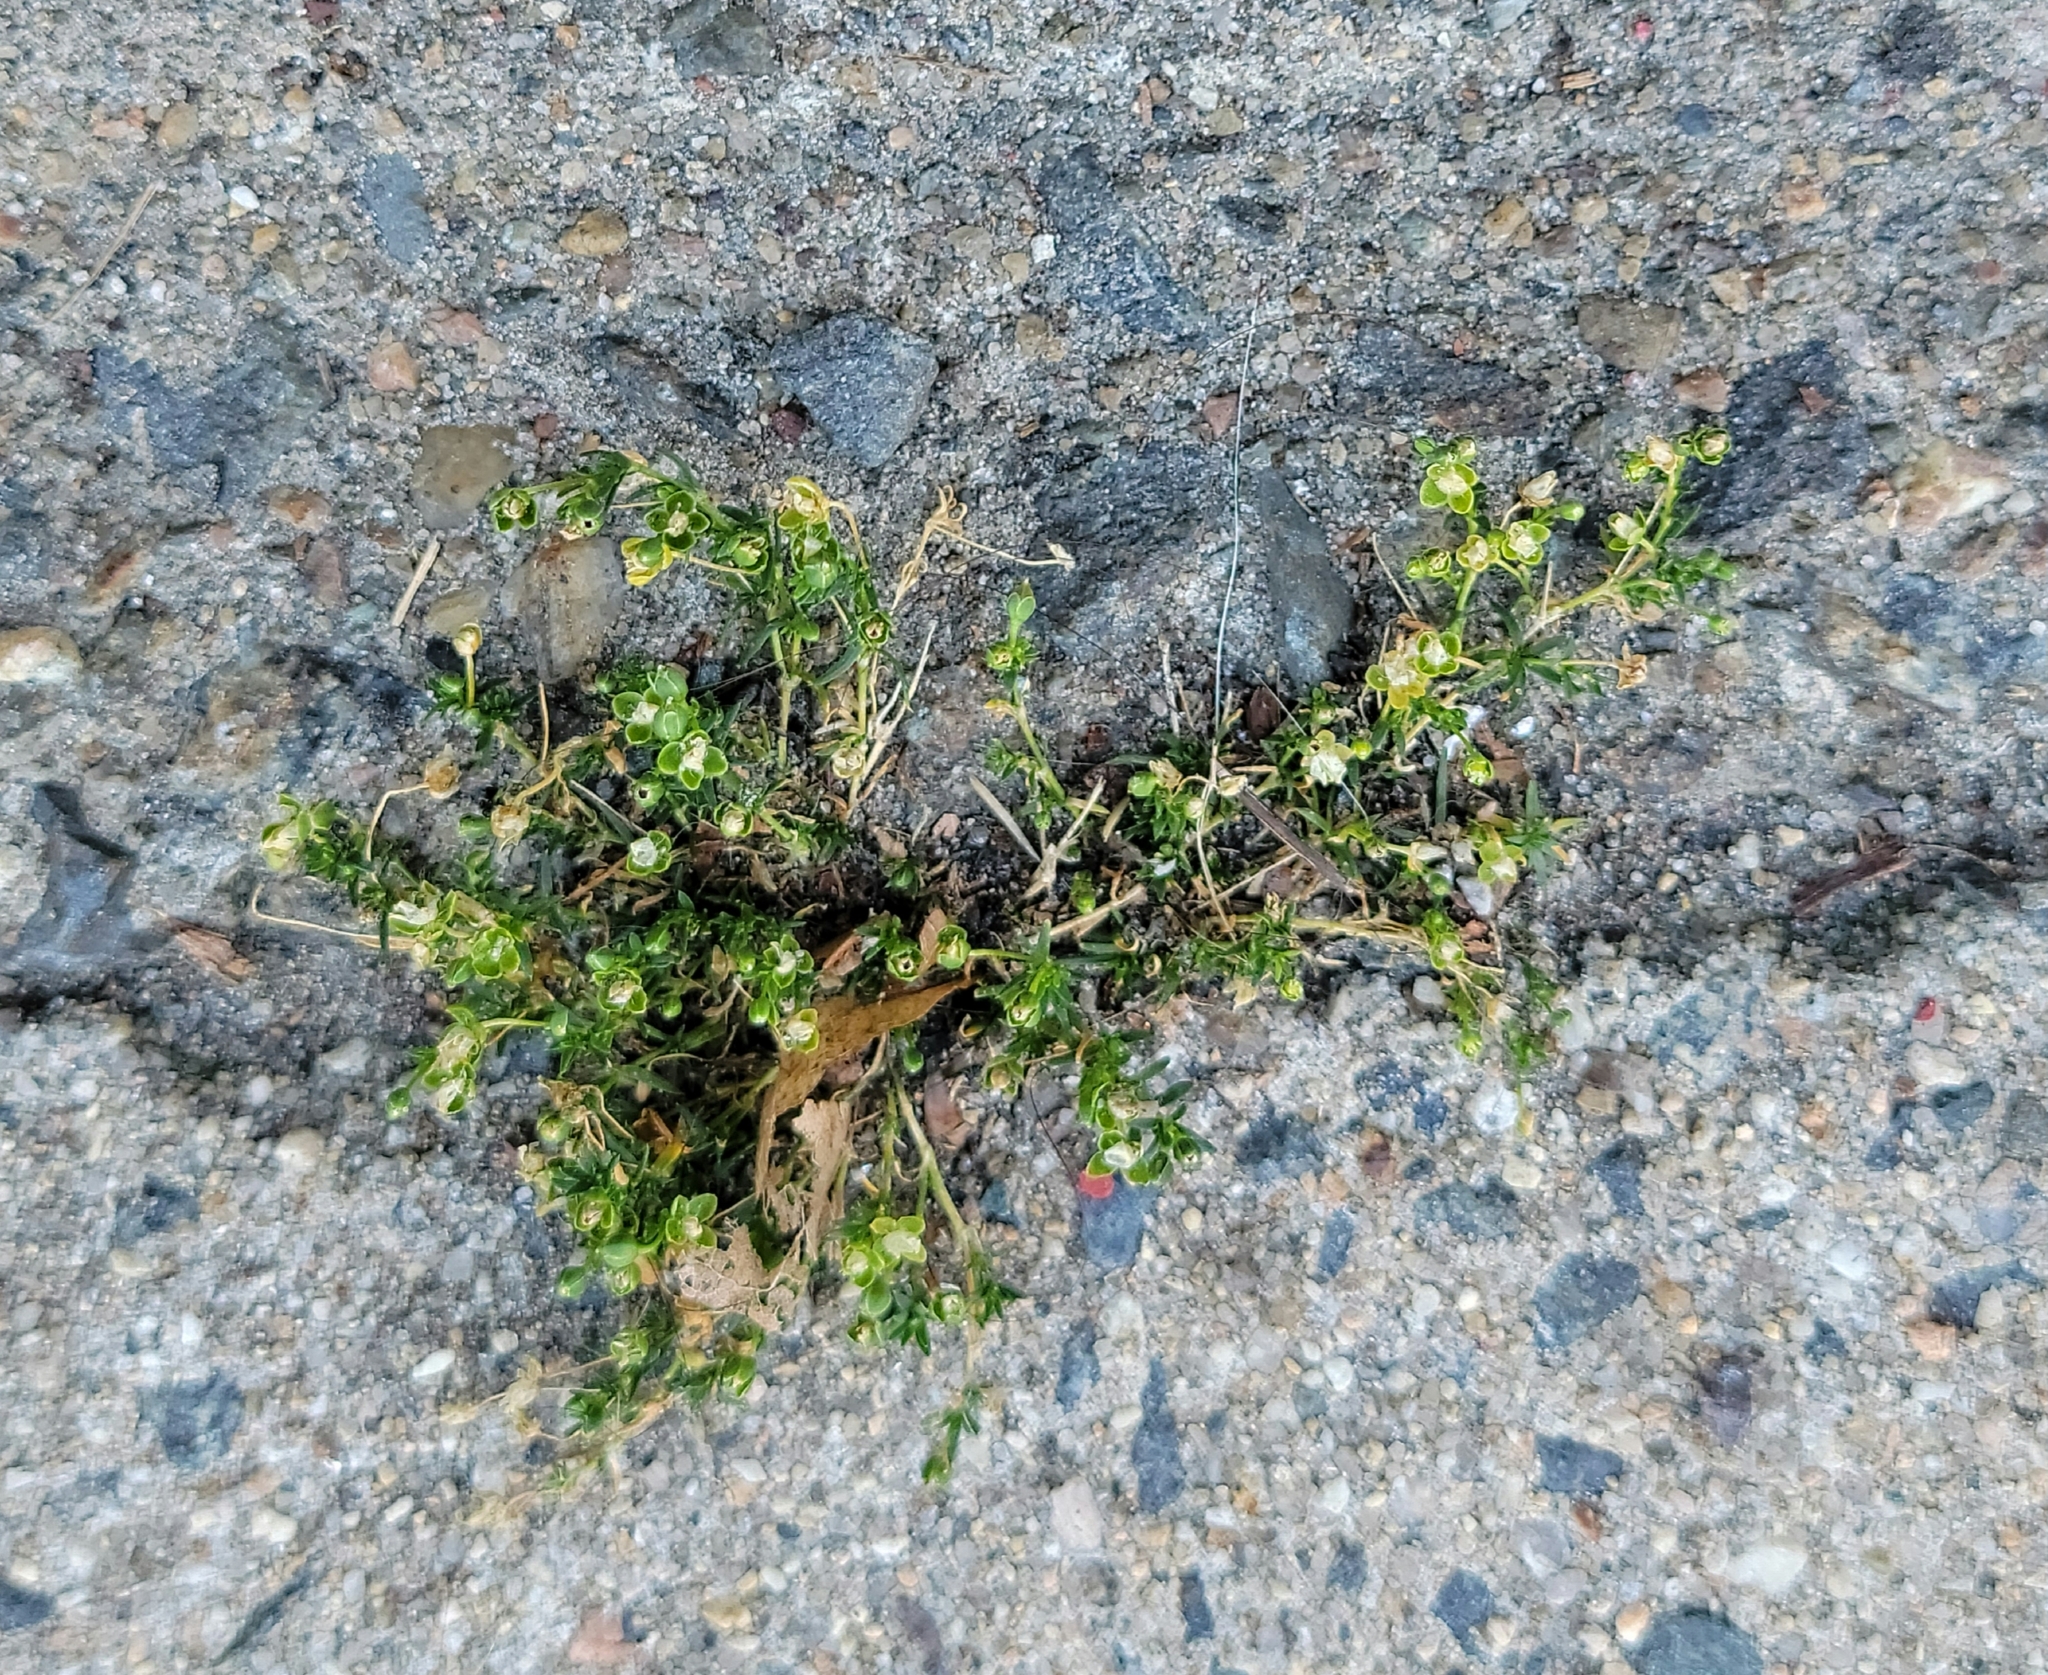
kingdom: Plantae
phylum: Tracheophyta
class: Magnoliopsida
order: Caryophyllales
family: Caryophyllaceae
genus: Sagina
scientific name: Sagina procumbens
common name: Procumbent pearlwort
